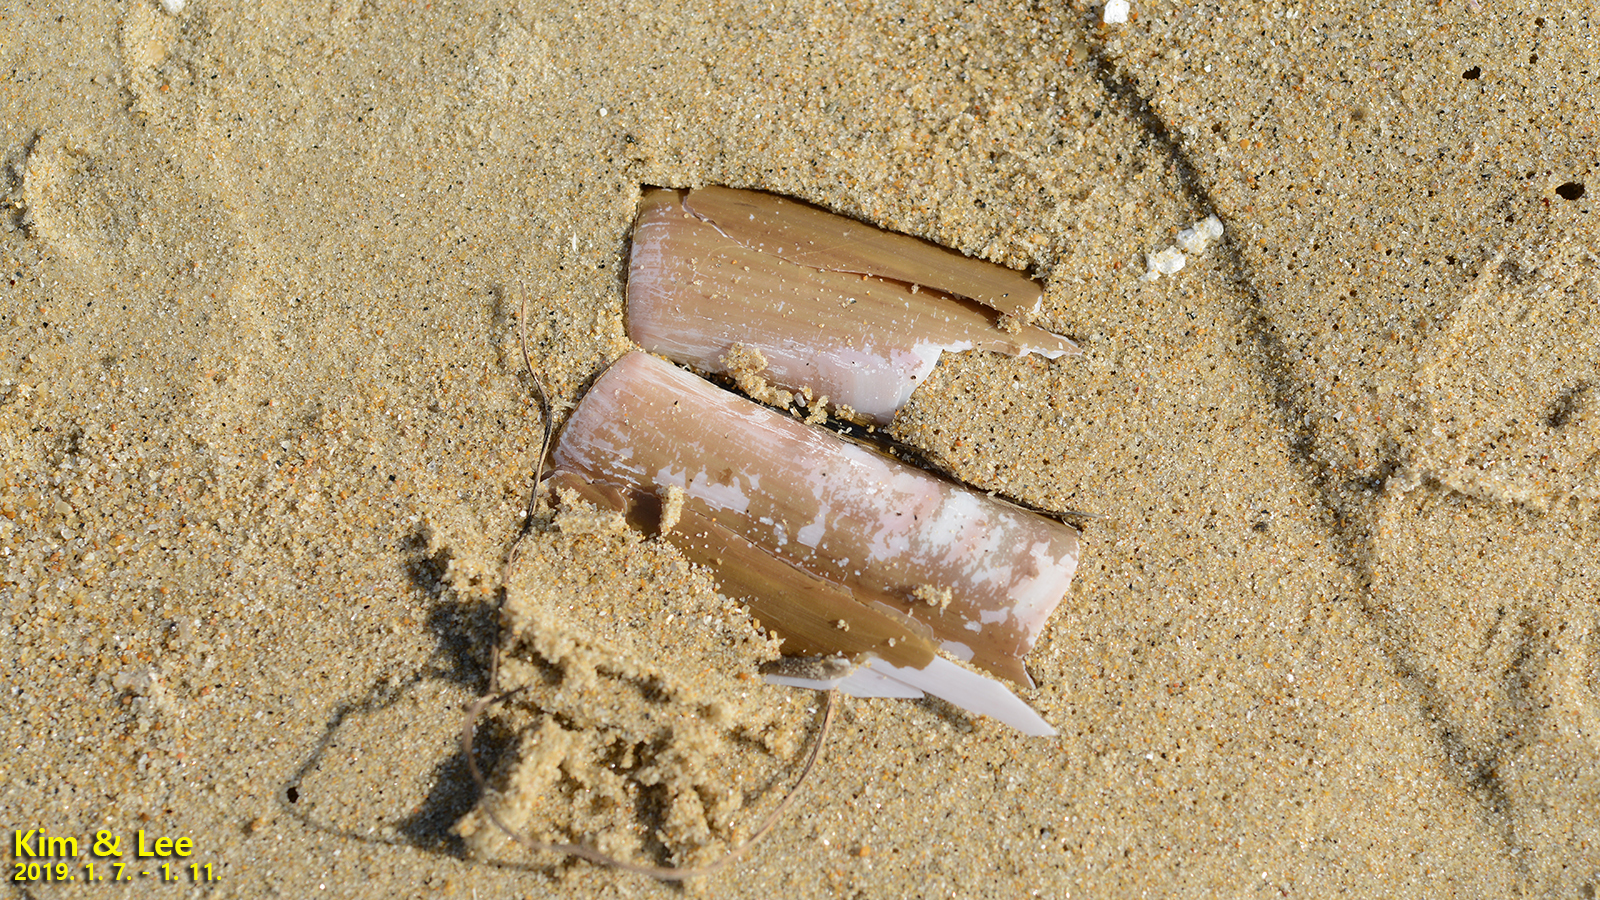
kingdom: Animalia
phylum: Mollusca
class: Bivalvia
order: Adapedonta
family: Solenidae
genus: Solen
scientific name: Solen grandis
